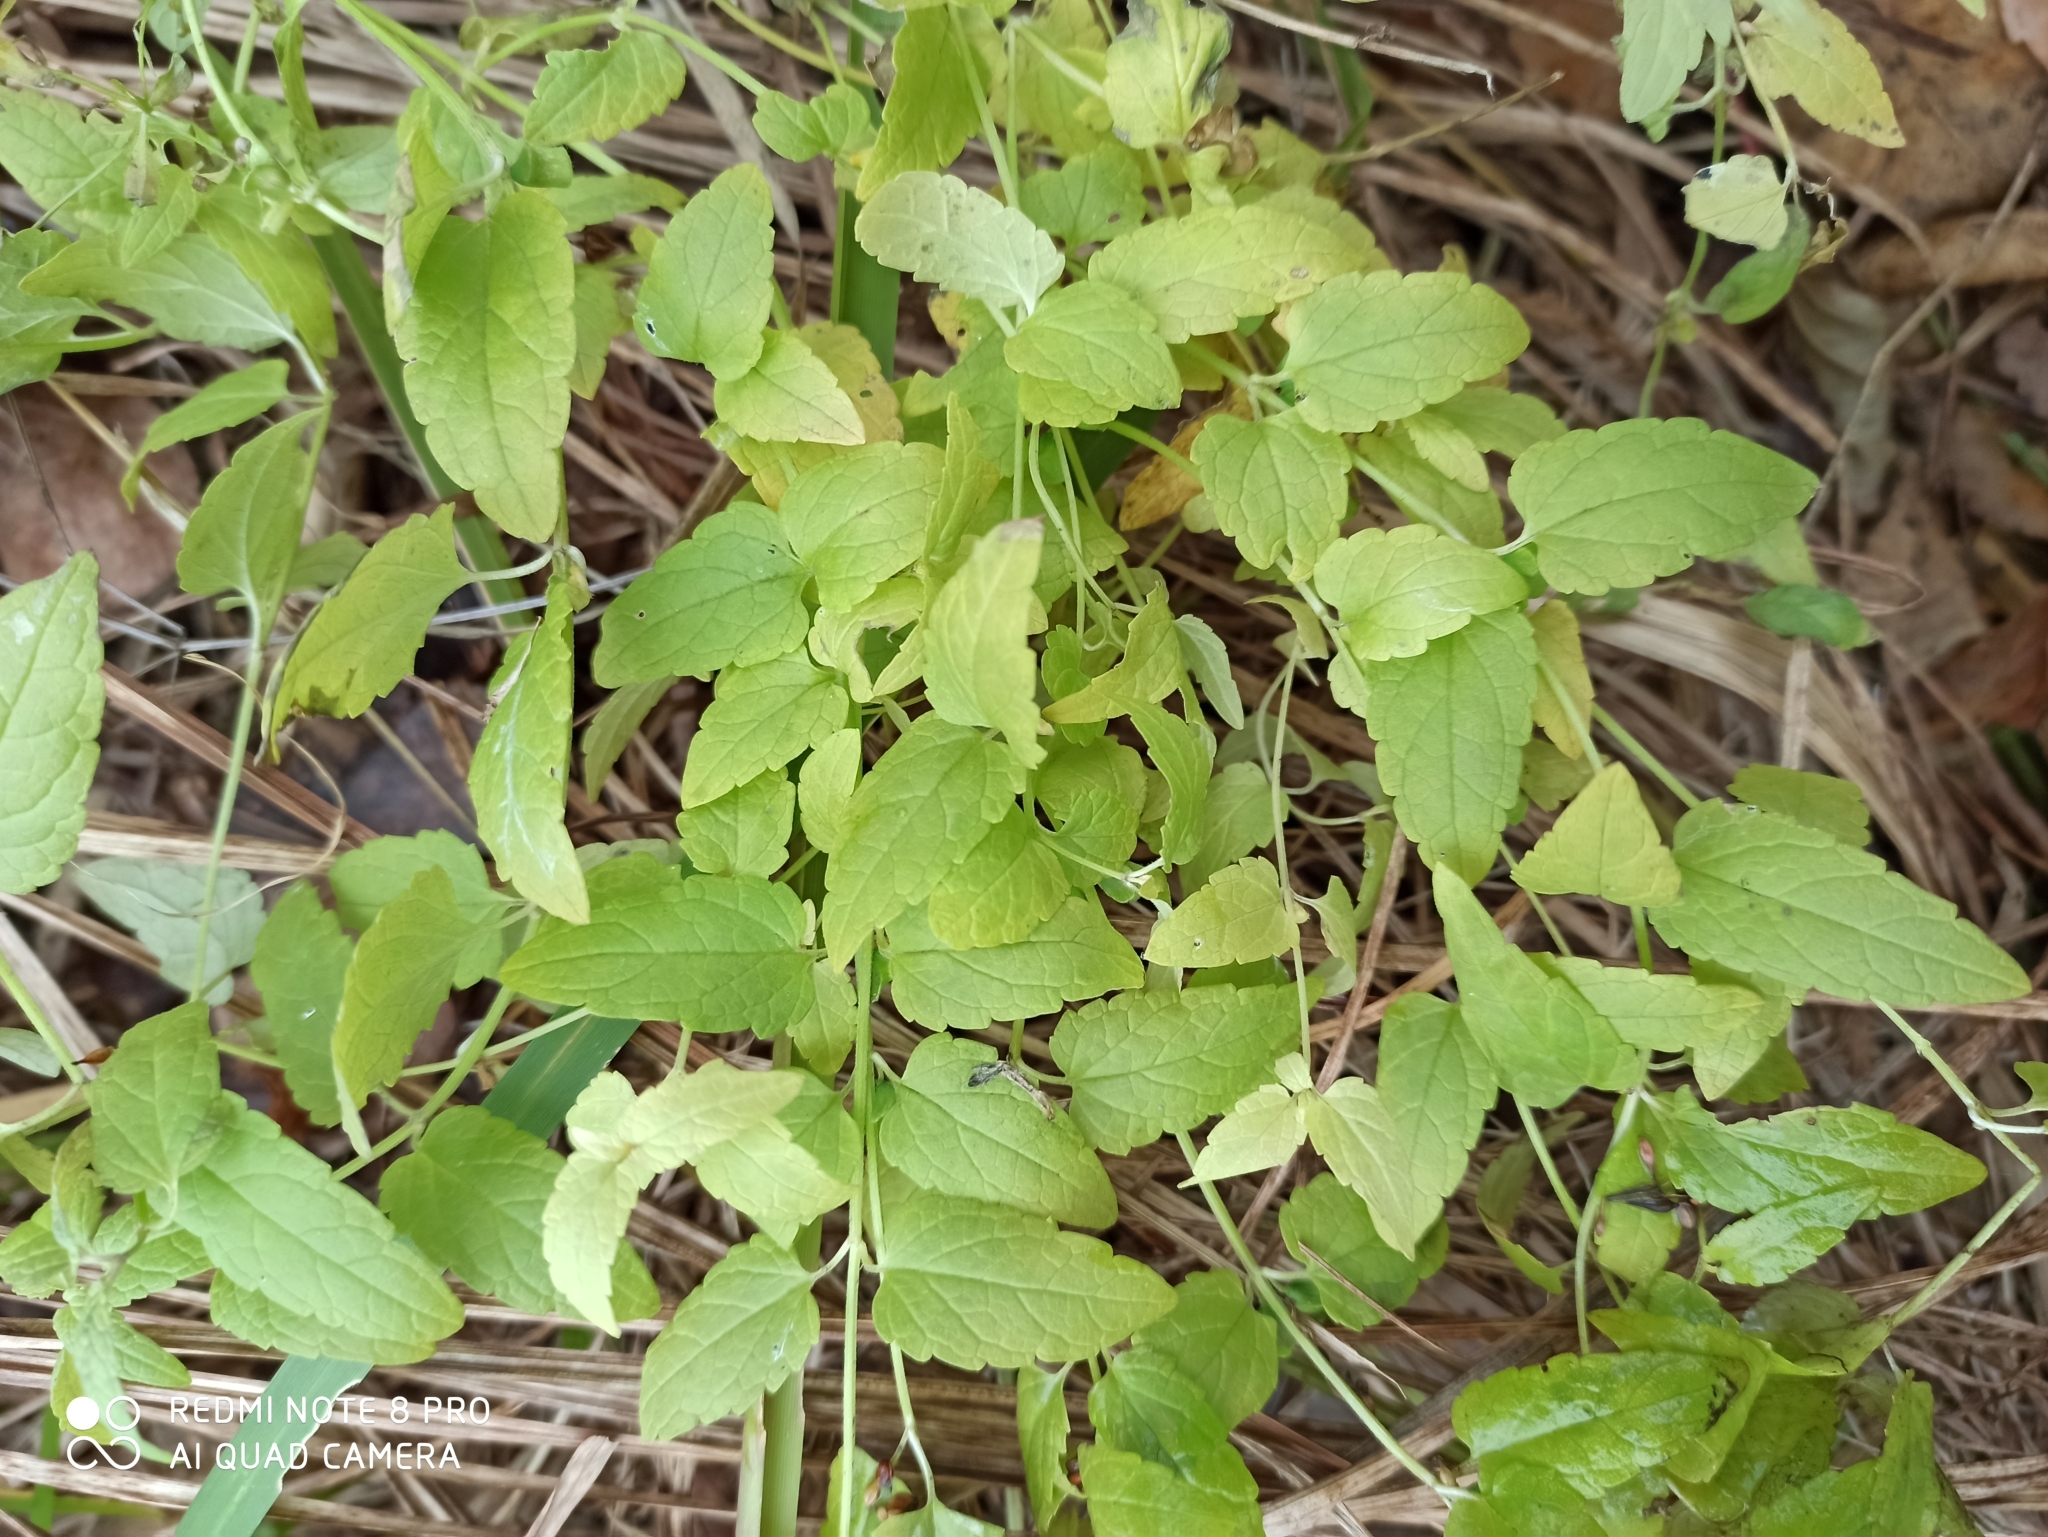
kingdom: Plantae
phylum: Tracheophyta
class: Magnoliopsida
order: Lamiales
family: Lamiaceae
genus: Scutellaria
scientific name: Scutellaria galericulata
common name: Skullcap
